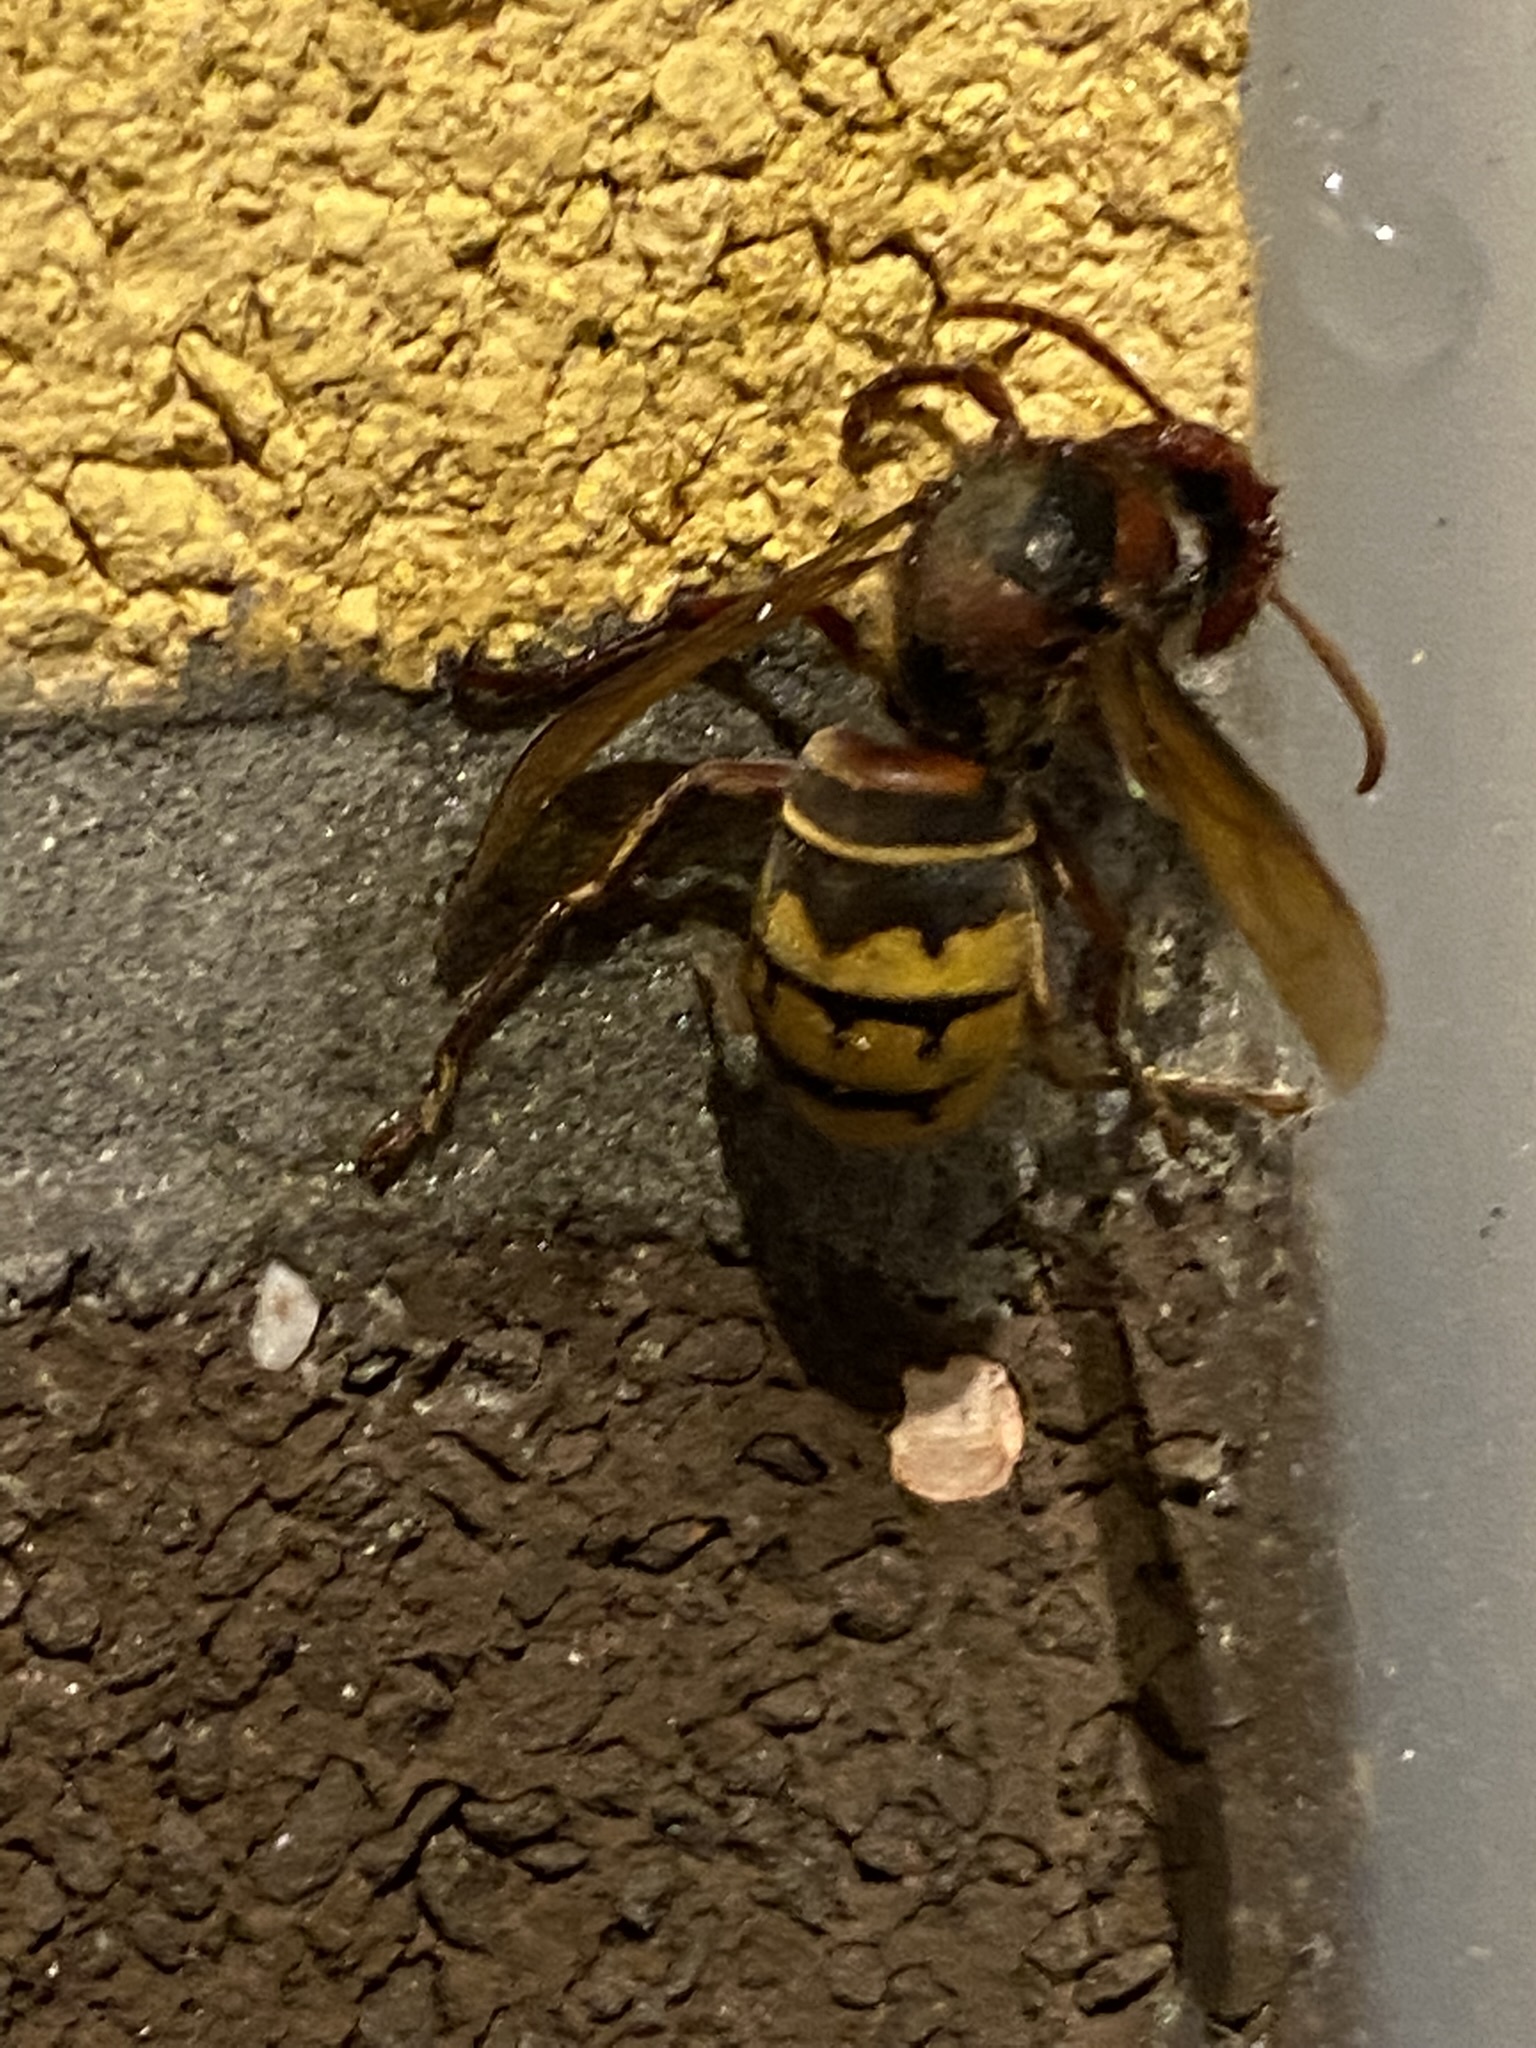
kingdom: Animalia
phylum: Arthropoda
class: Insecta
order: Hymenoptera
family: Vespidae
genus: Vespa
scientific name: Vespa crabro
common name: Hornet
